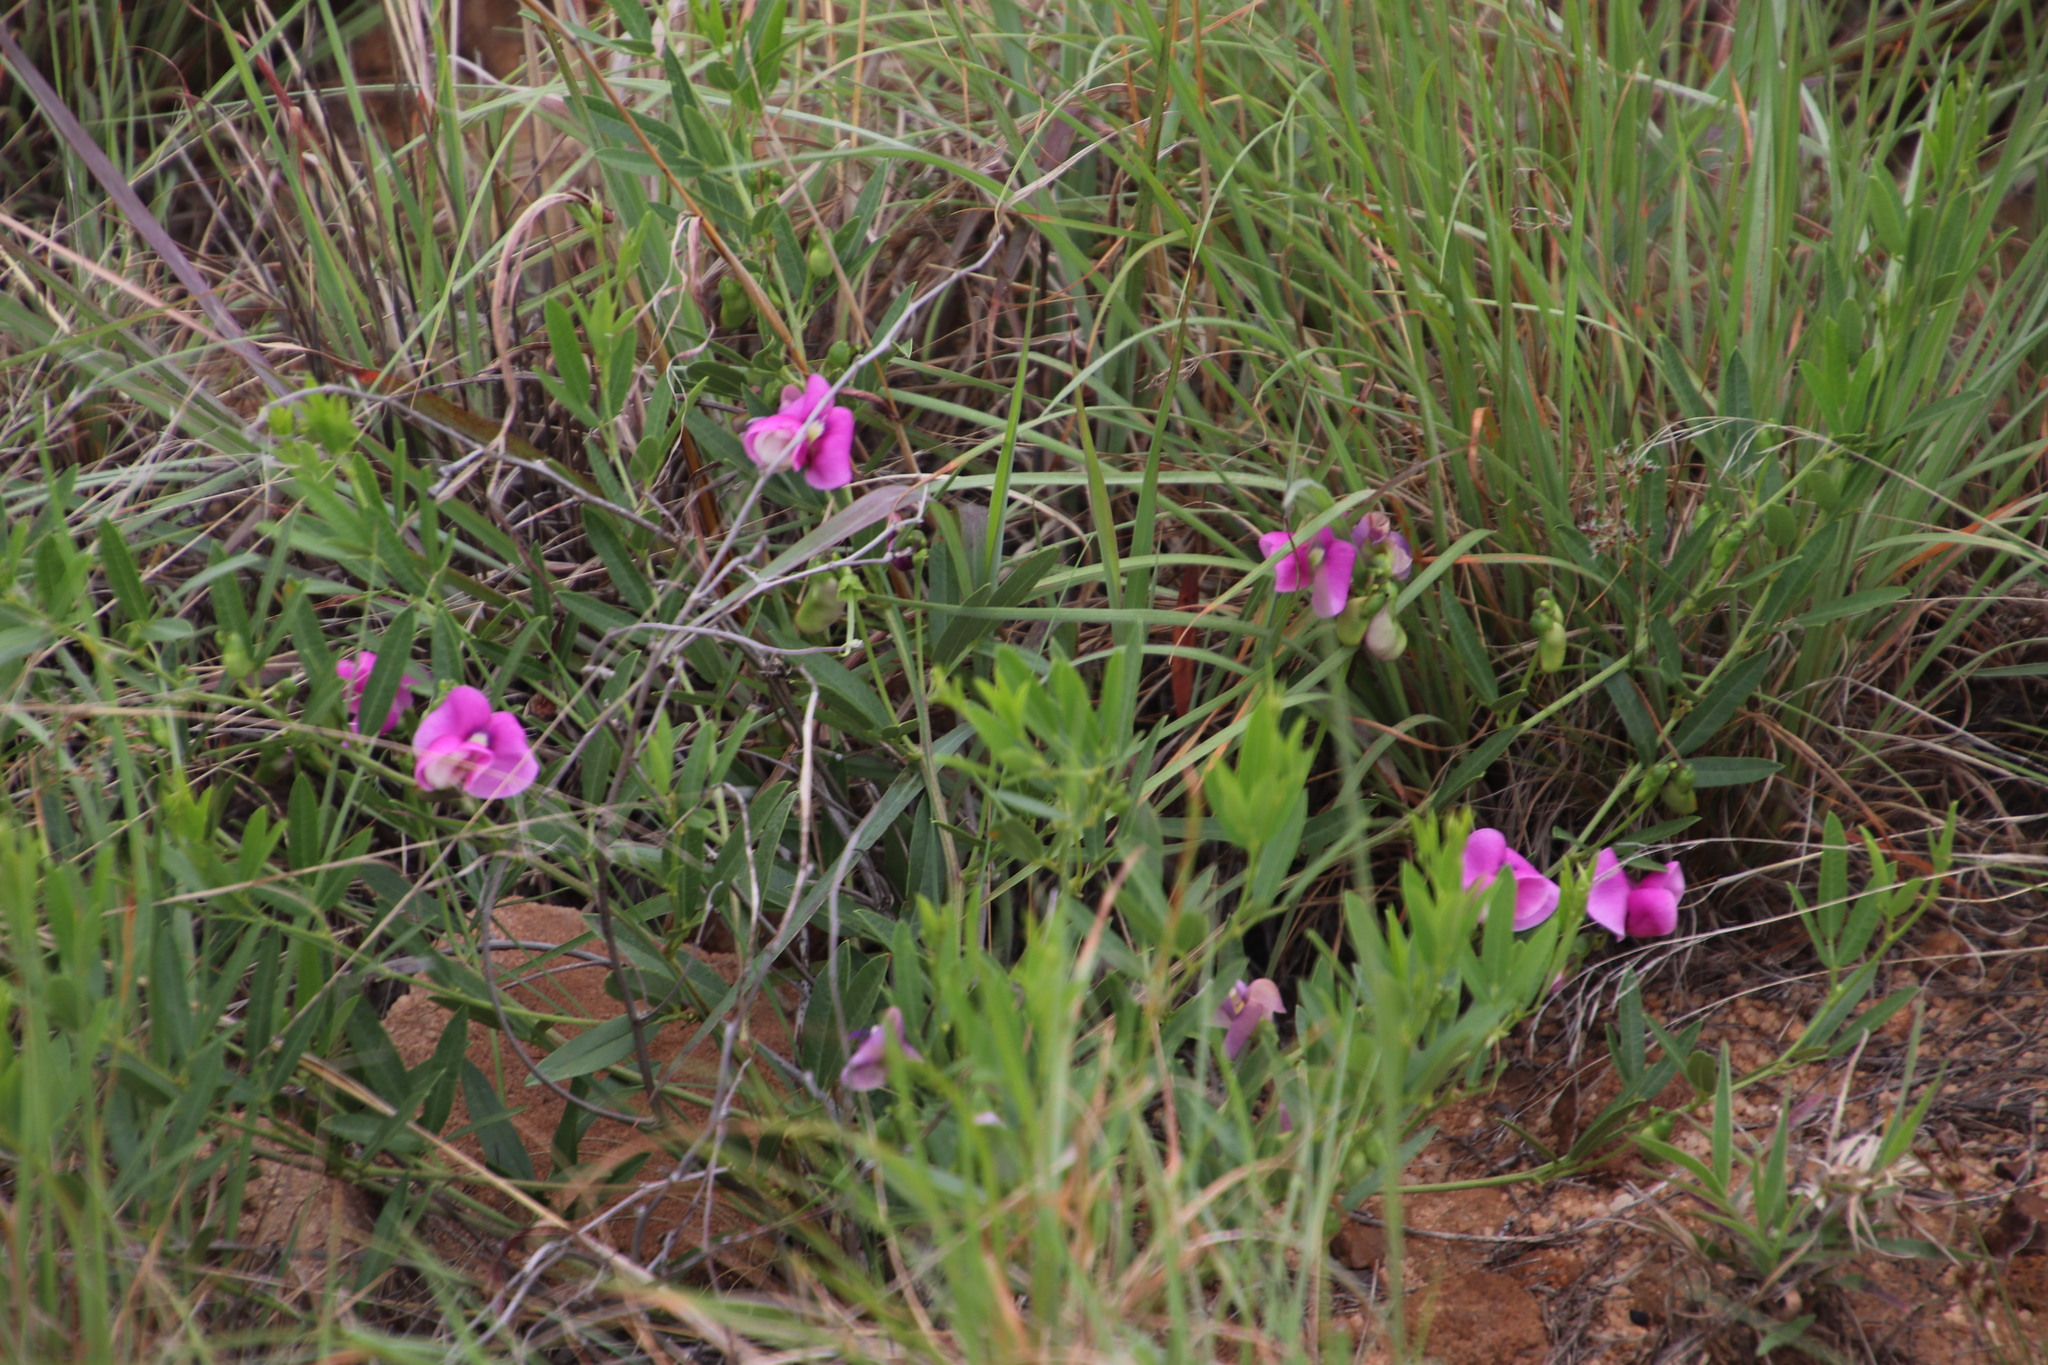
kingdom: Plantae
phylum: Tracheophyta
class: Magnoliopsida
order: Fabales
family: Fabaceae
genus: Sphenostylis
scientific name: Sphenostylis angustifolia
